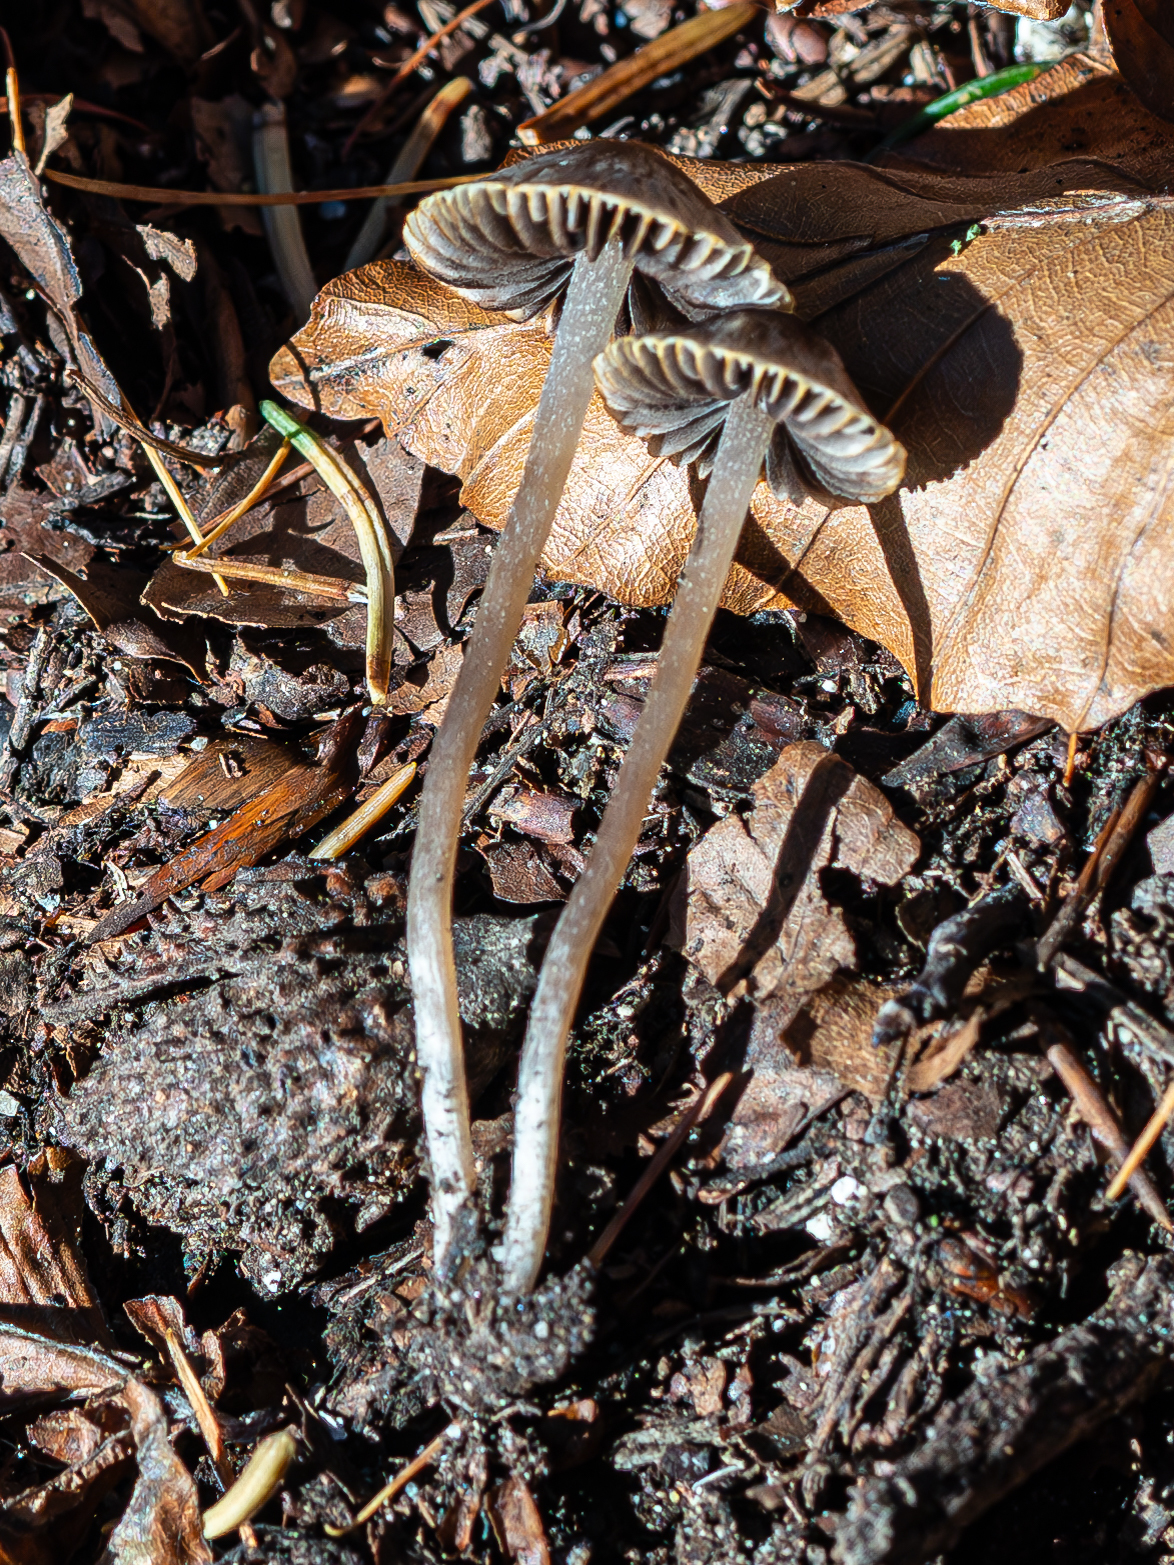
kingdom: Fungi
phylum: Basidiomycota
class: Agaricomycetes
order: Agaricales
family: Psathyrellaceae
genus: Psathyrella
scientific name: Psathyrella prona
